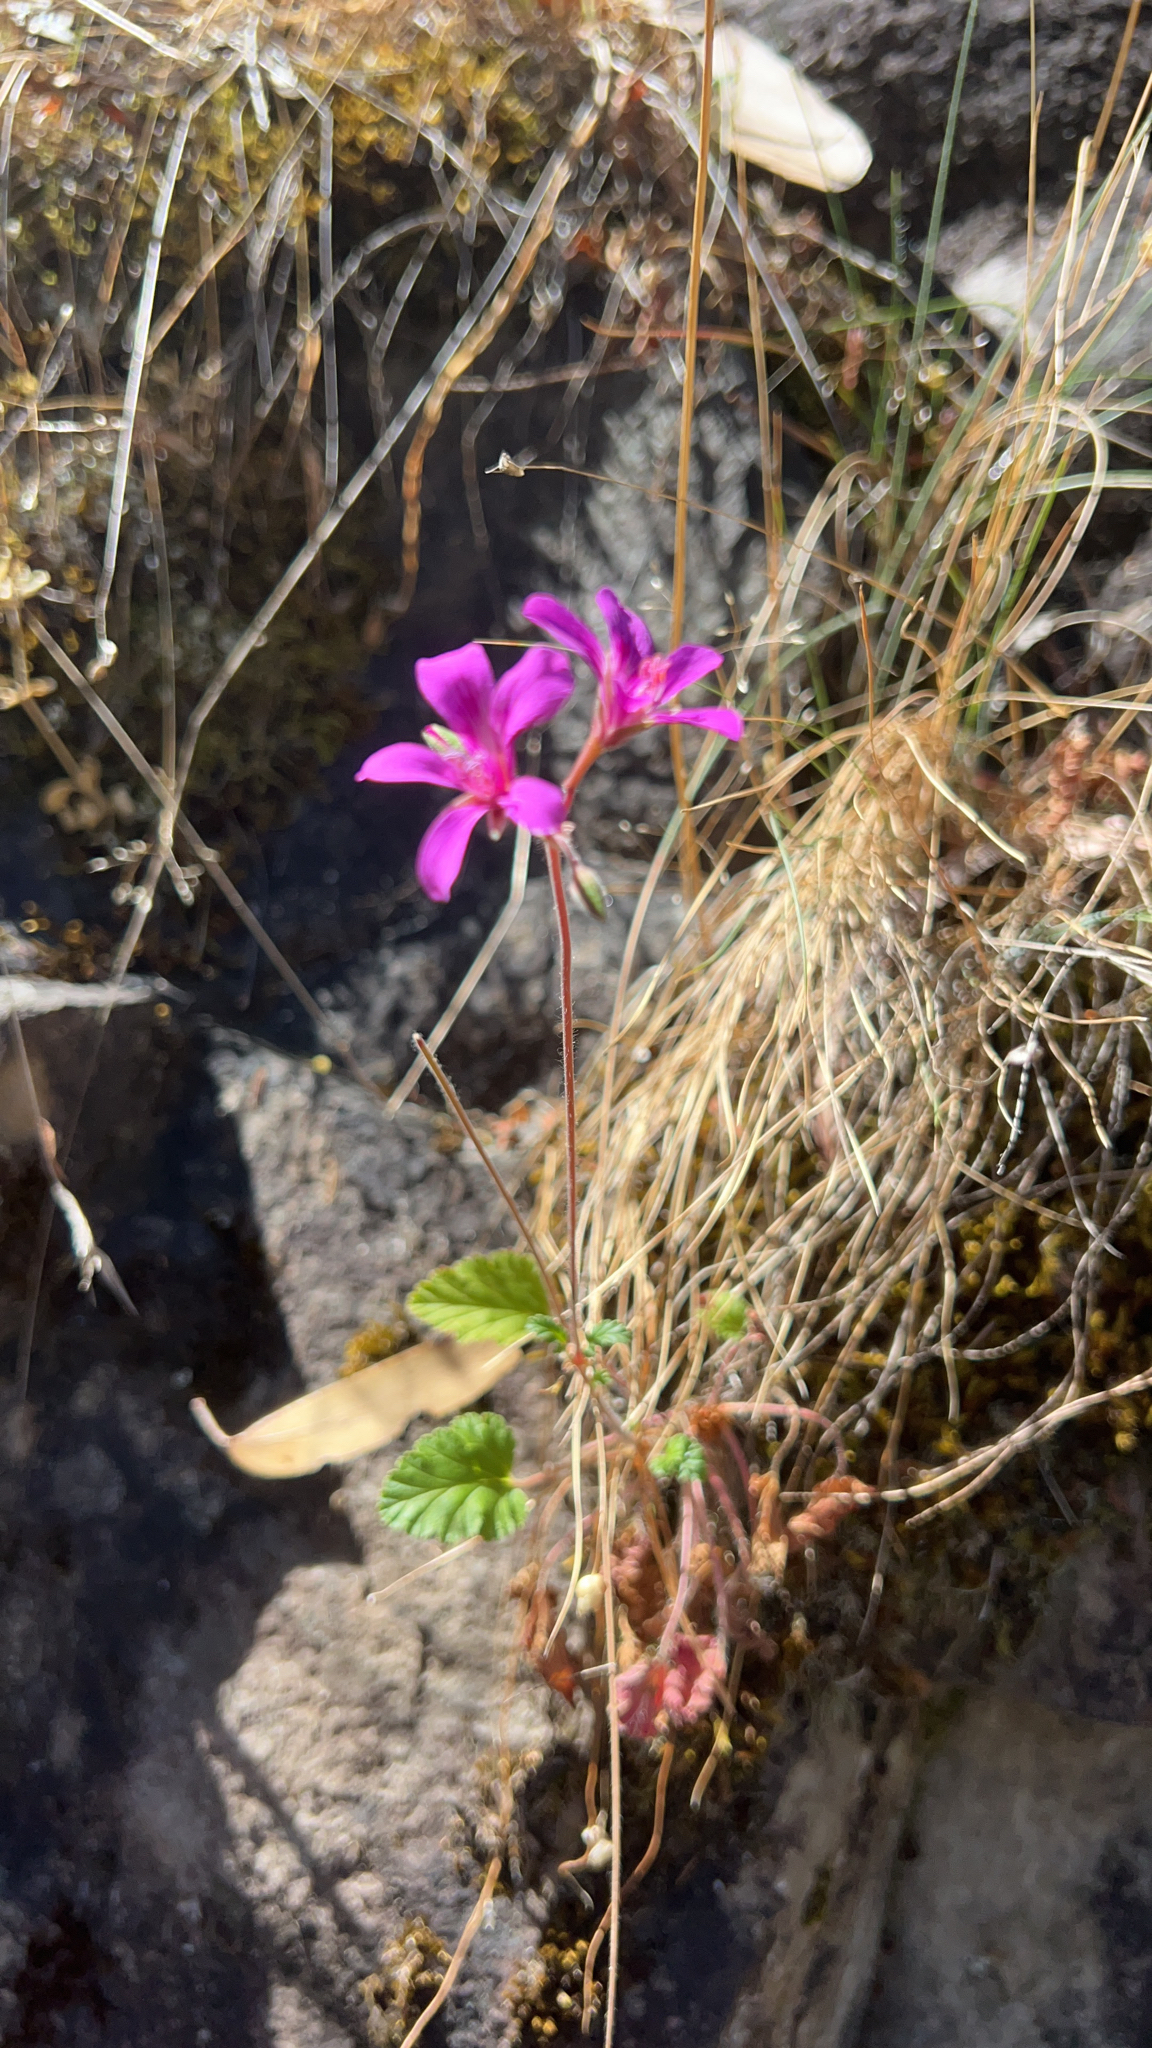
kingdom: Plantae
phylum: Tracheophyta
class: Magnoliopsida
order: Geraniales
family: Geraniaceae
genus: Pelargonium
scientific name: Pelargonium rodneyanum
